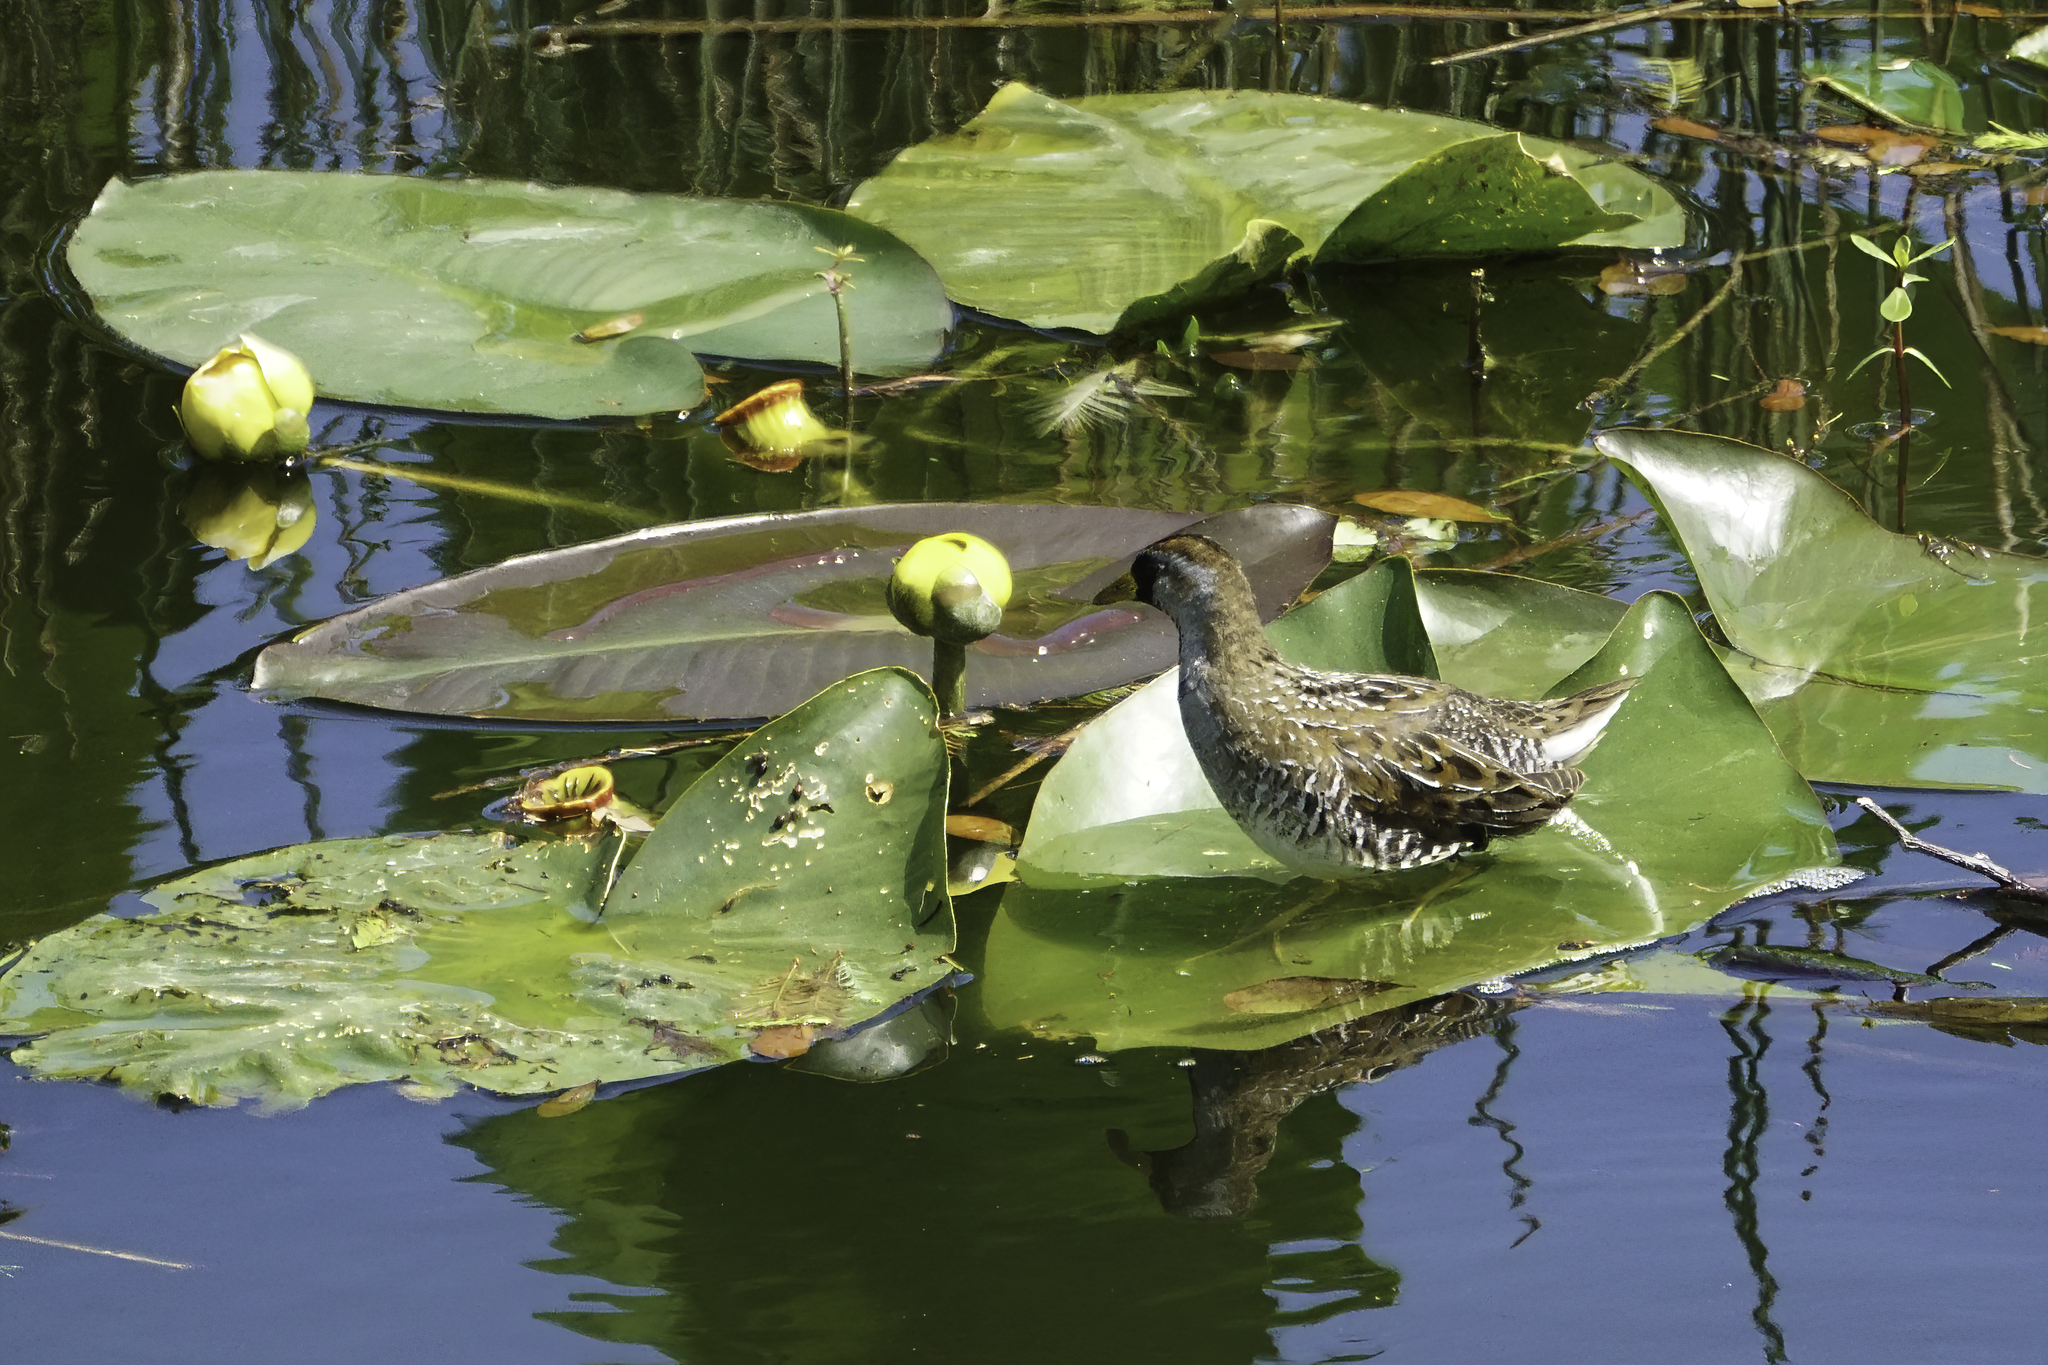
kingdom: Animalia
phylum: Chordata
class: Aves
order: Gruiformes
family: Rallidae
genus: Porzana
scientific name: Porzana carolina
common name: Sora
